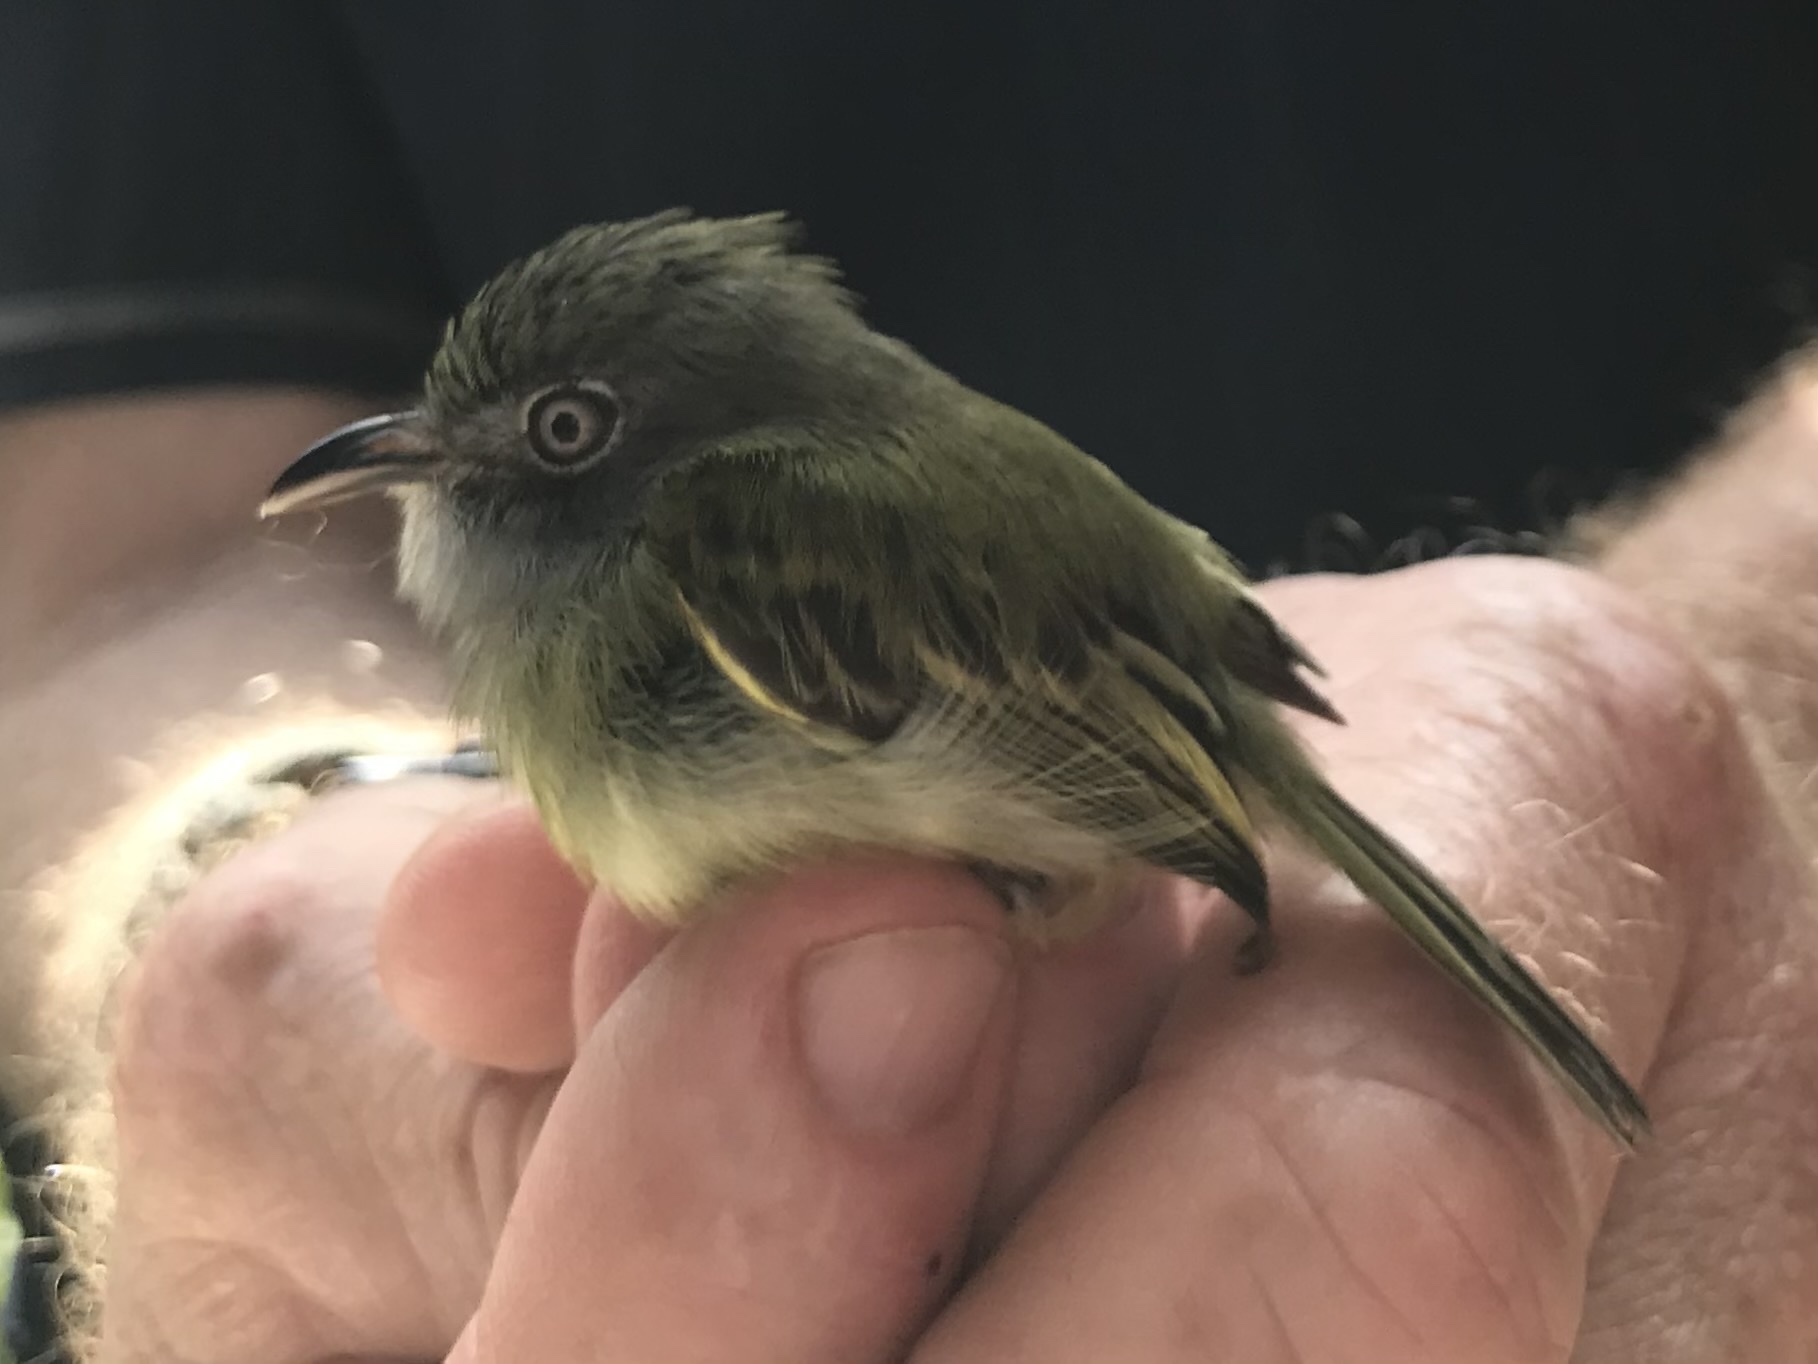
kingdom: Animalia
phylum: Chordata
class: Aves
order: Passeriformes
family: Tyrannidae
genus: Oncostoma
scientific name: Oncostoma cinereigulare
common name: Northern bentbill
